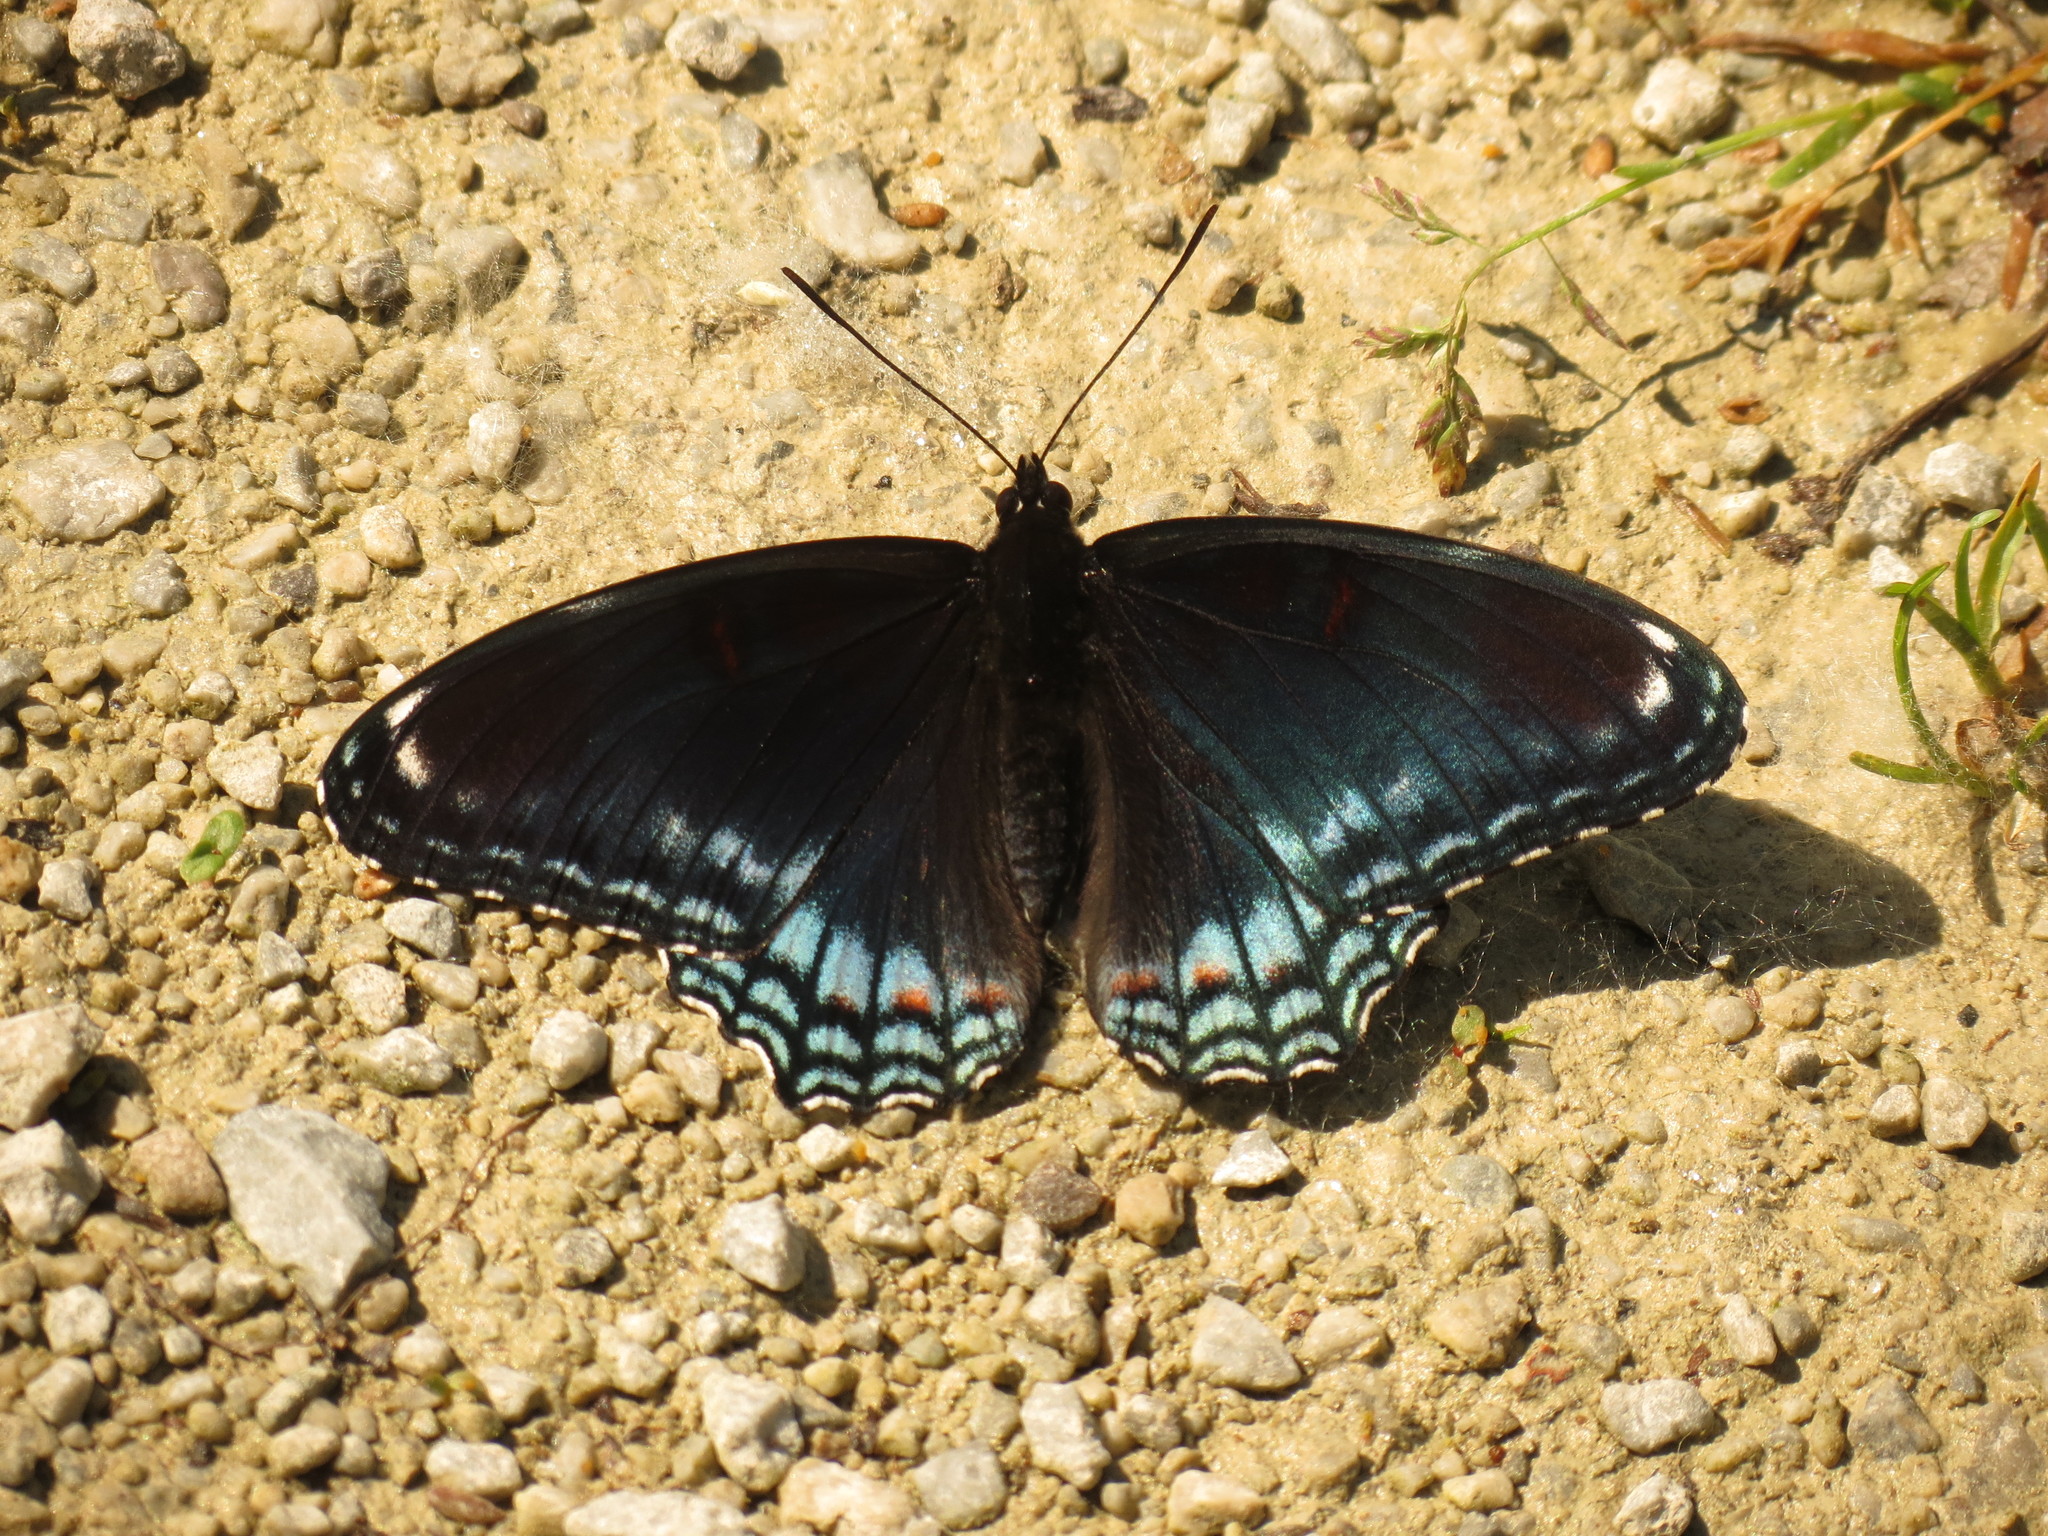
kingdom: Animalia
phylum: Arthropoda
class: Insecta
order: Lepidoptera
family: Nymphalidae
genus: Limenitis
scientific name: Limenitis astyanax
